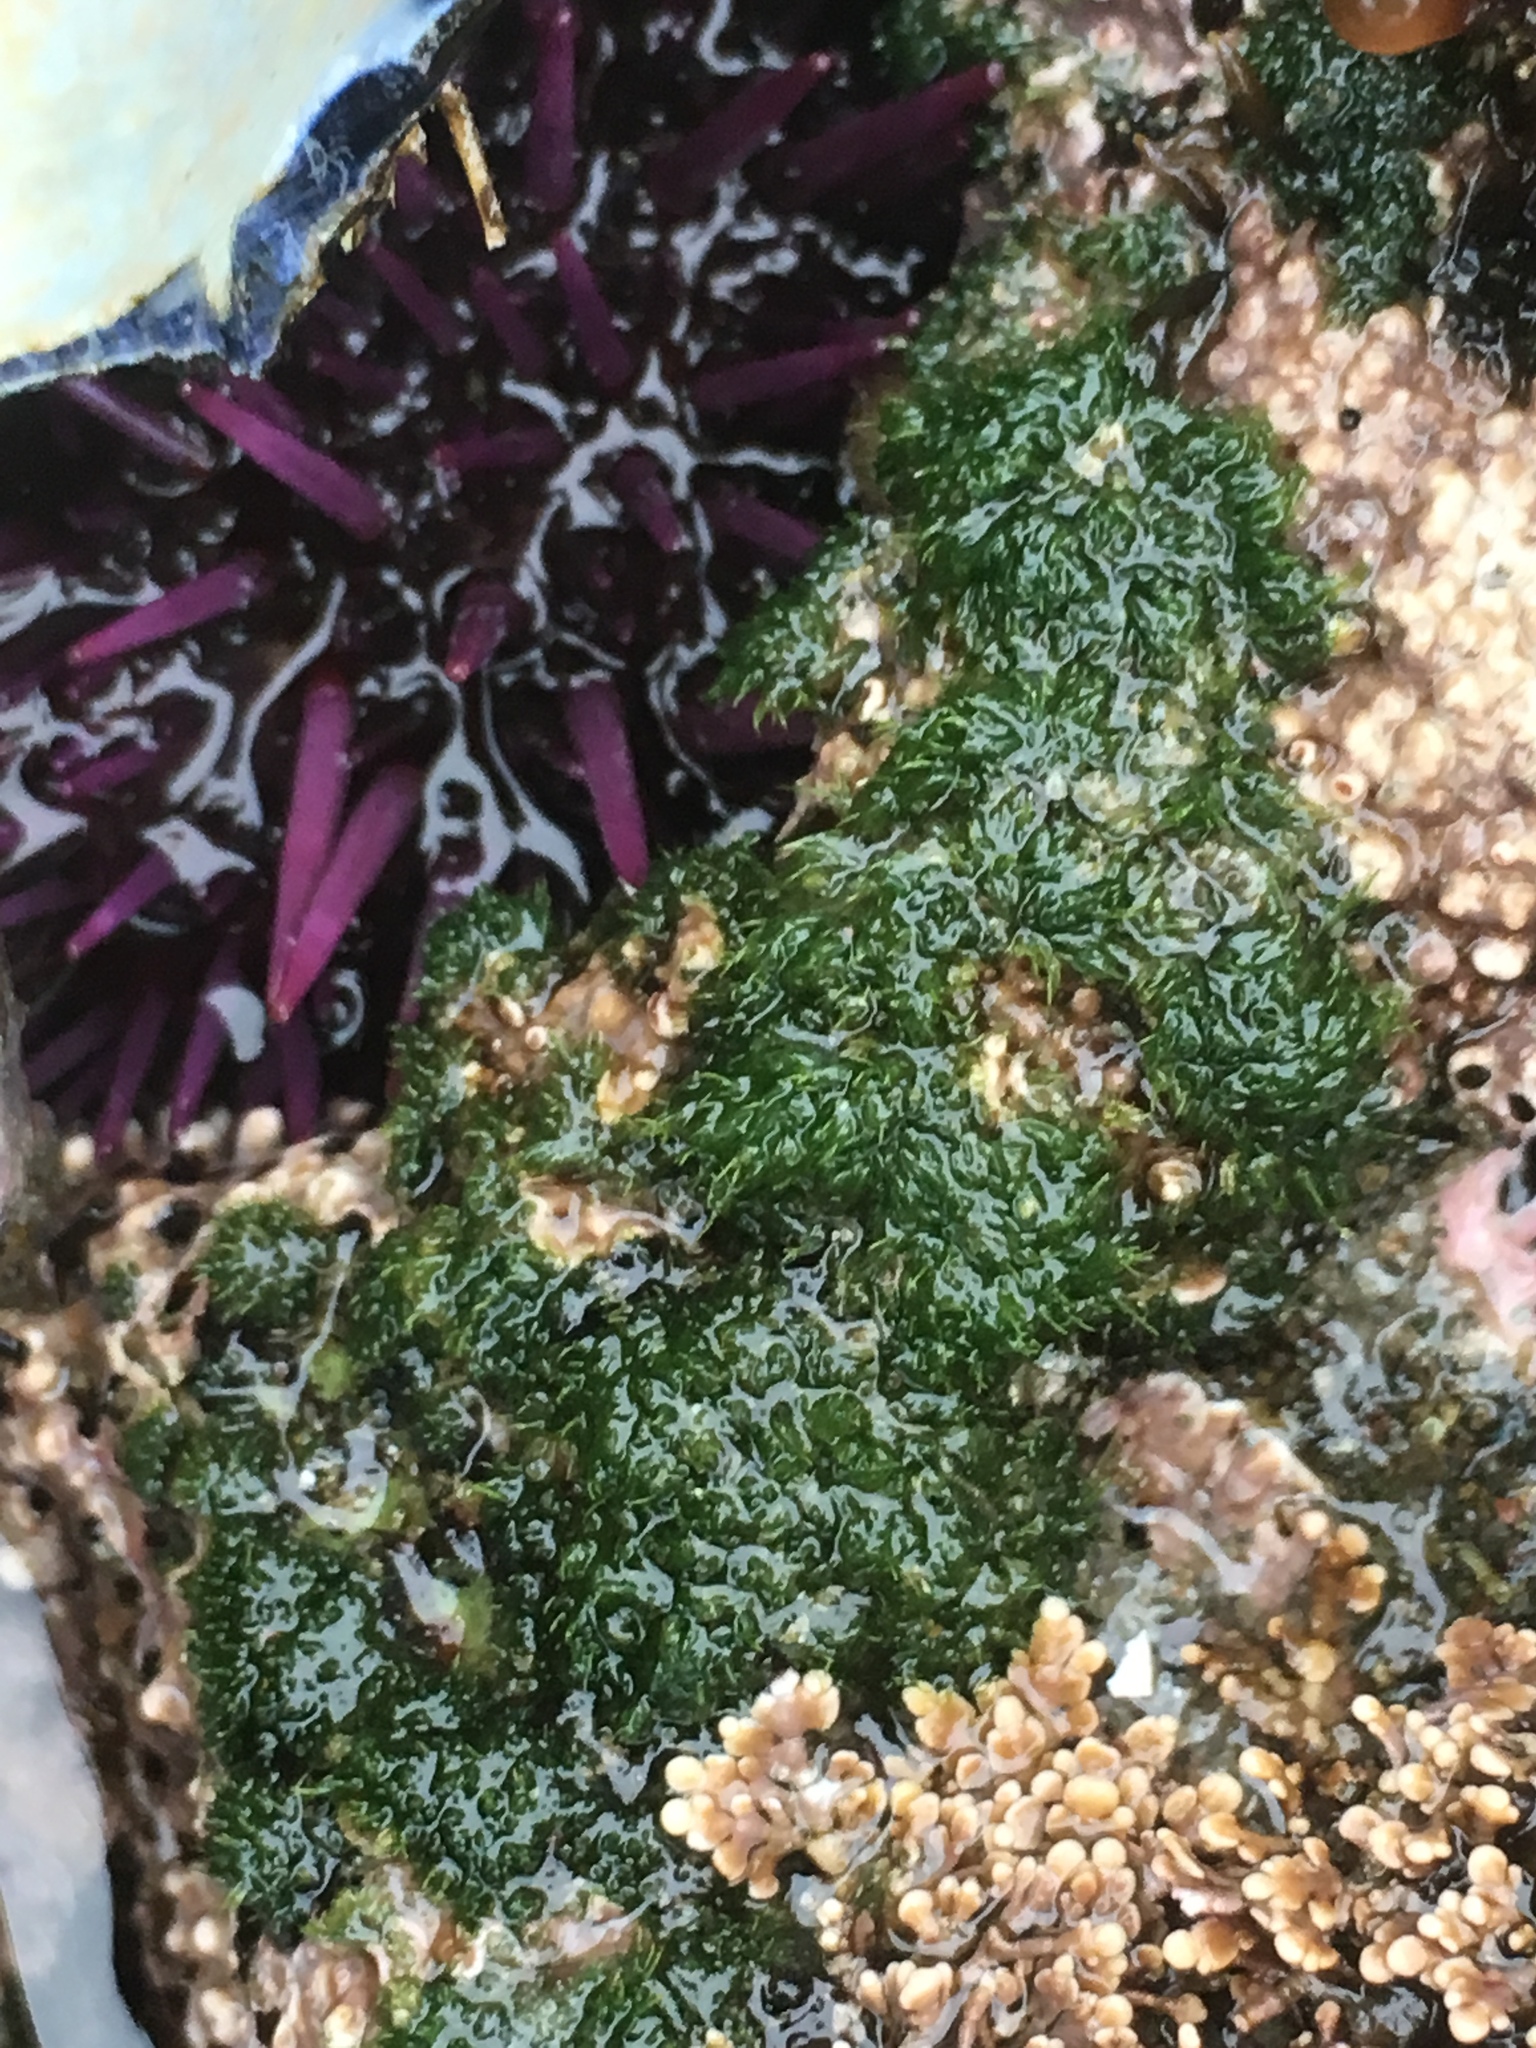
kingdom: Plantae
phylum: Chlorophyta
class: Ulvophyceae
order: Cladophorales
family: Cladophoraceae
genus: Cladophora
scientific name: Cladophora columbiana
